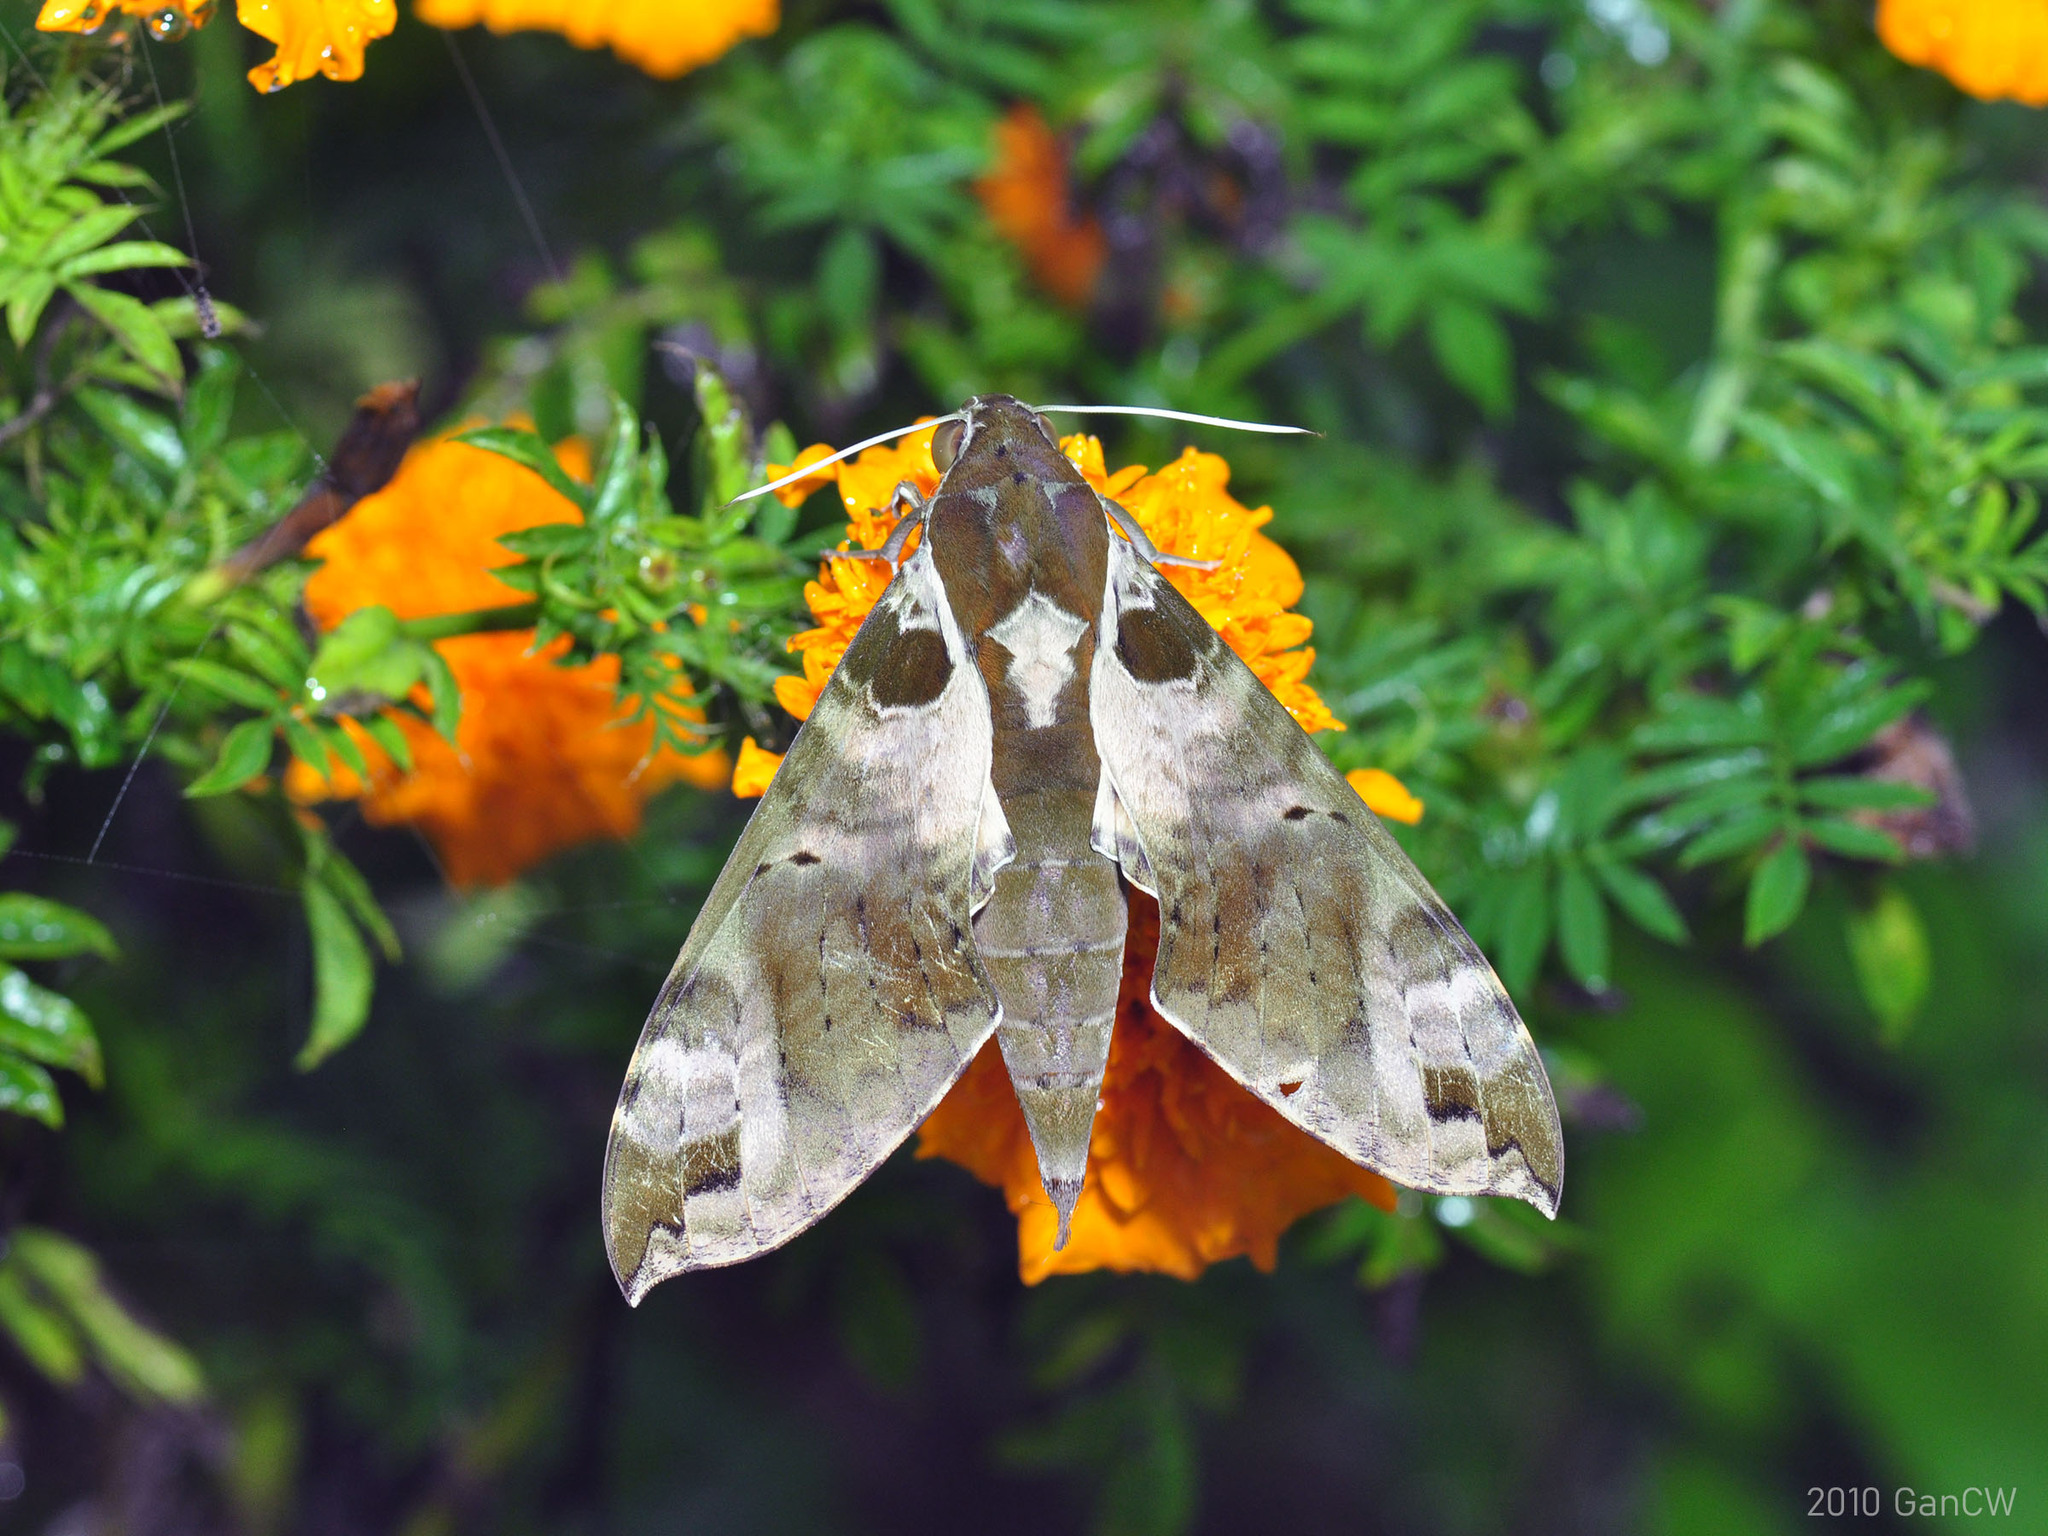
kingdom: Animalia
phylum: Arthropoda
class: Insecta
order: Lepidoptera
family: Sphingidae
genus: Cechenena
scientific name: Cechenena helops
